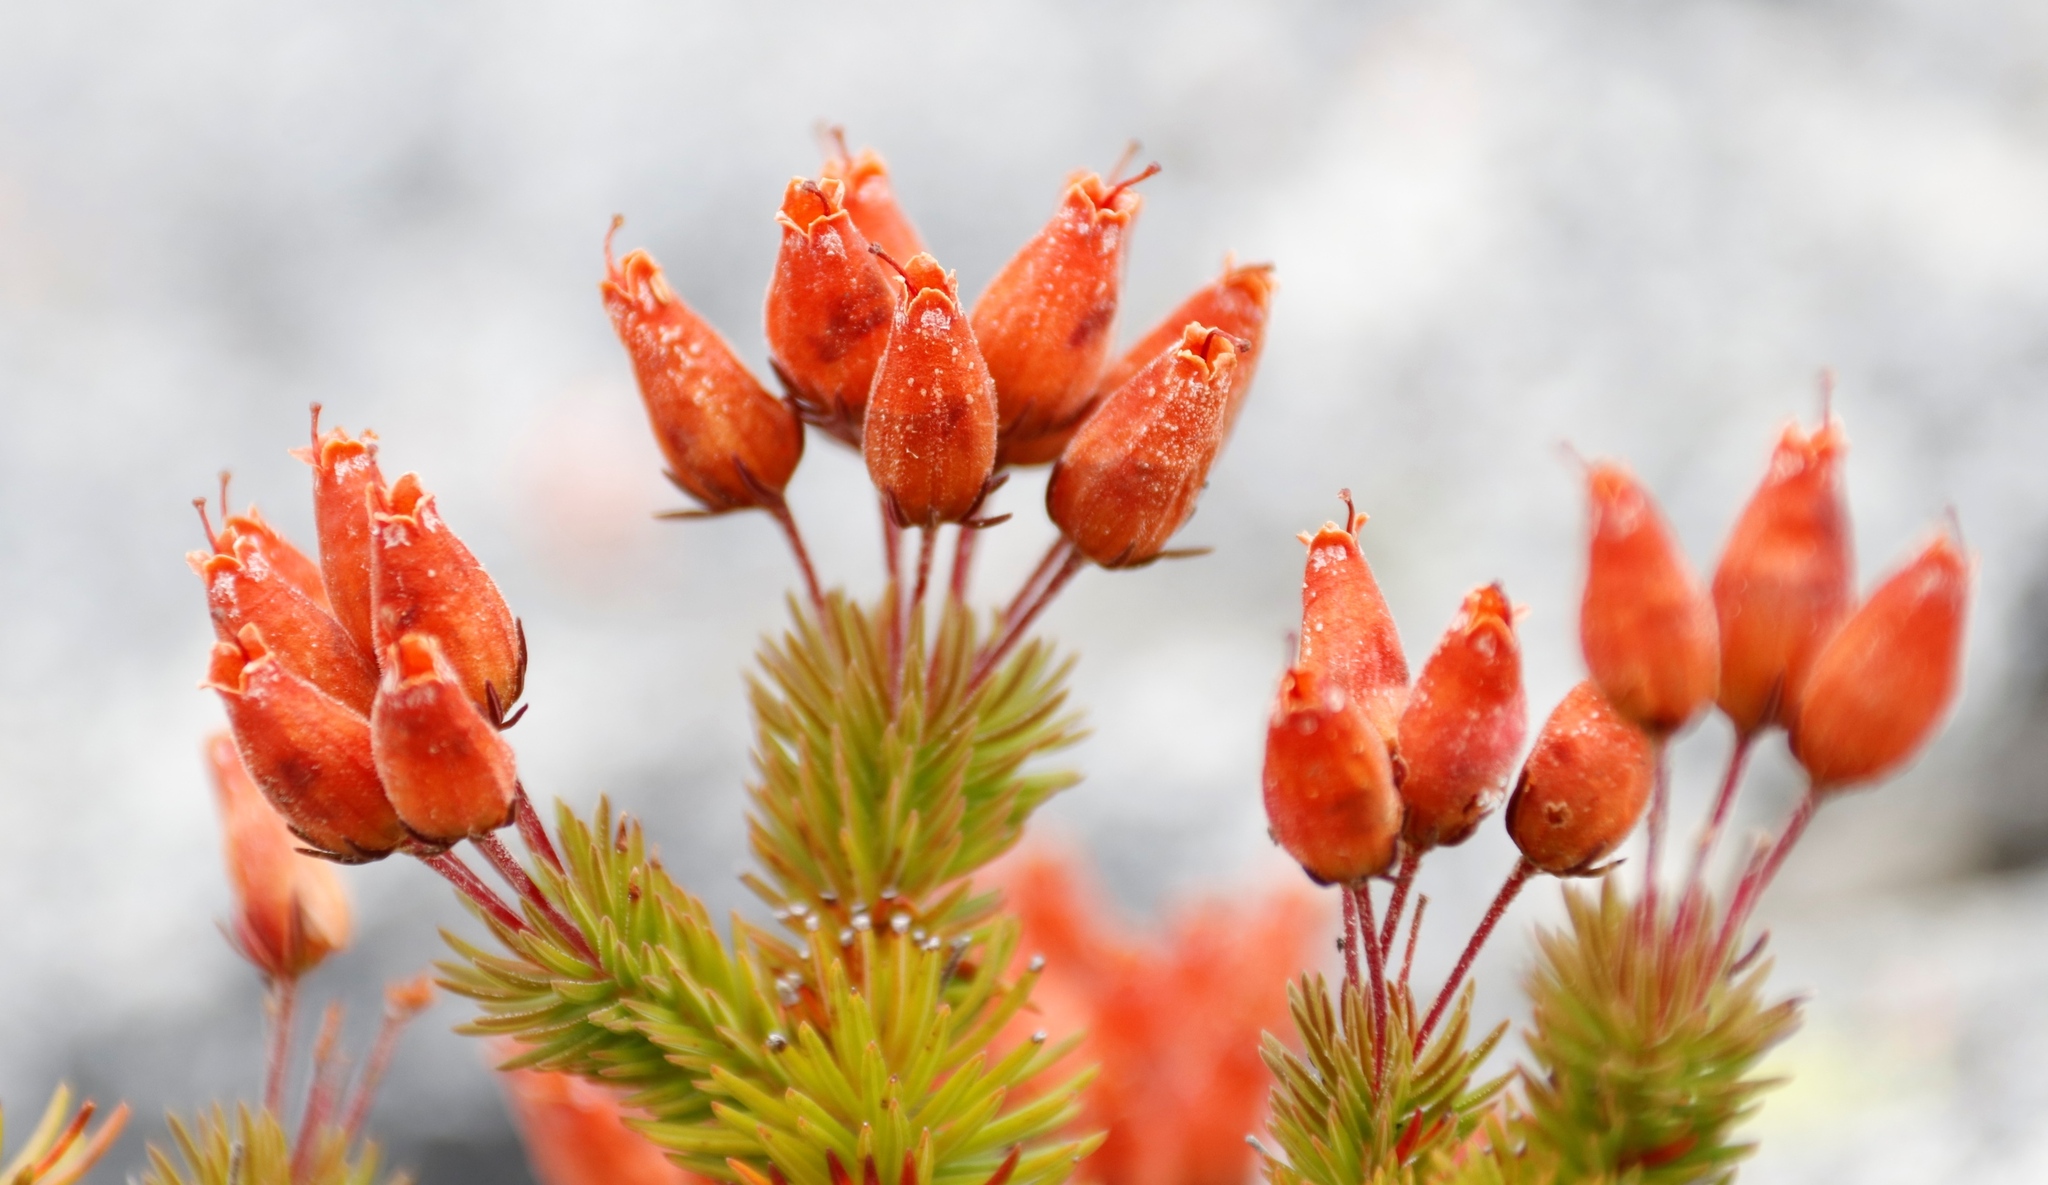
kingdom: Plantae
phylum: Tracheophyta
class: Magnoliopsida
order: Ericales
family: Ericaceae
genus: Erica
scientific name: Erica doliiformis
